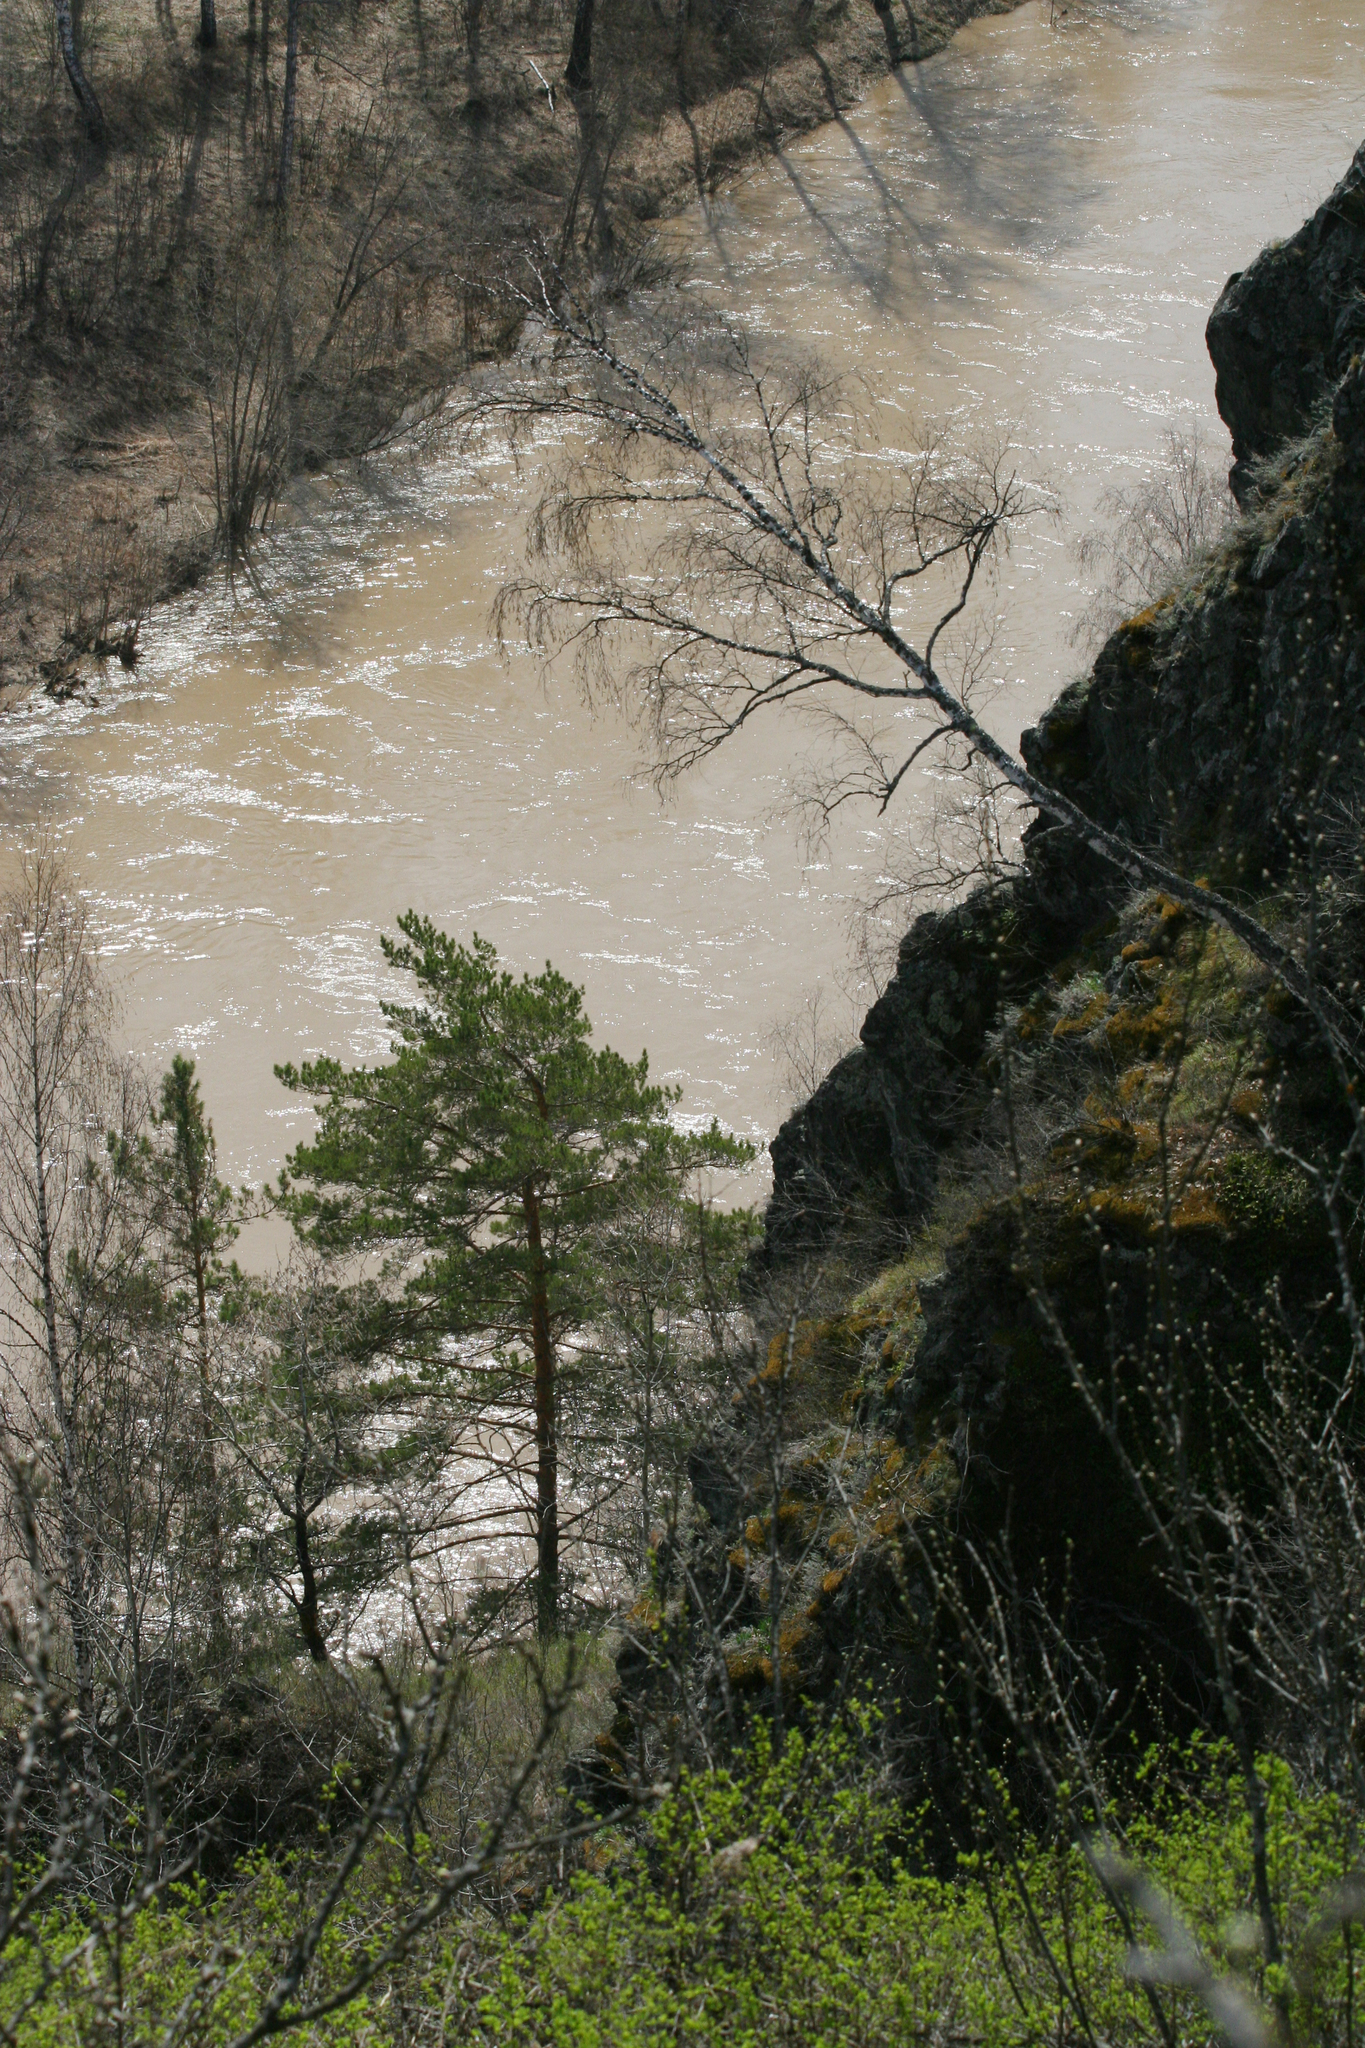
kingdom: Plantae
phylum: Tracheophyta
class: Magnoliopsida
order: Fagales
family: Betulaceae
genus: Betula
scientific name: Betula pendula
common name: Silver birch
